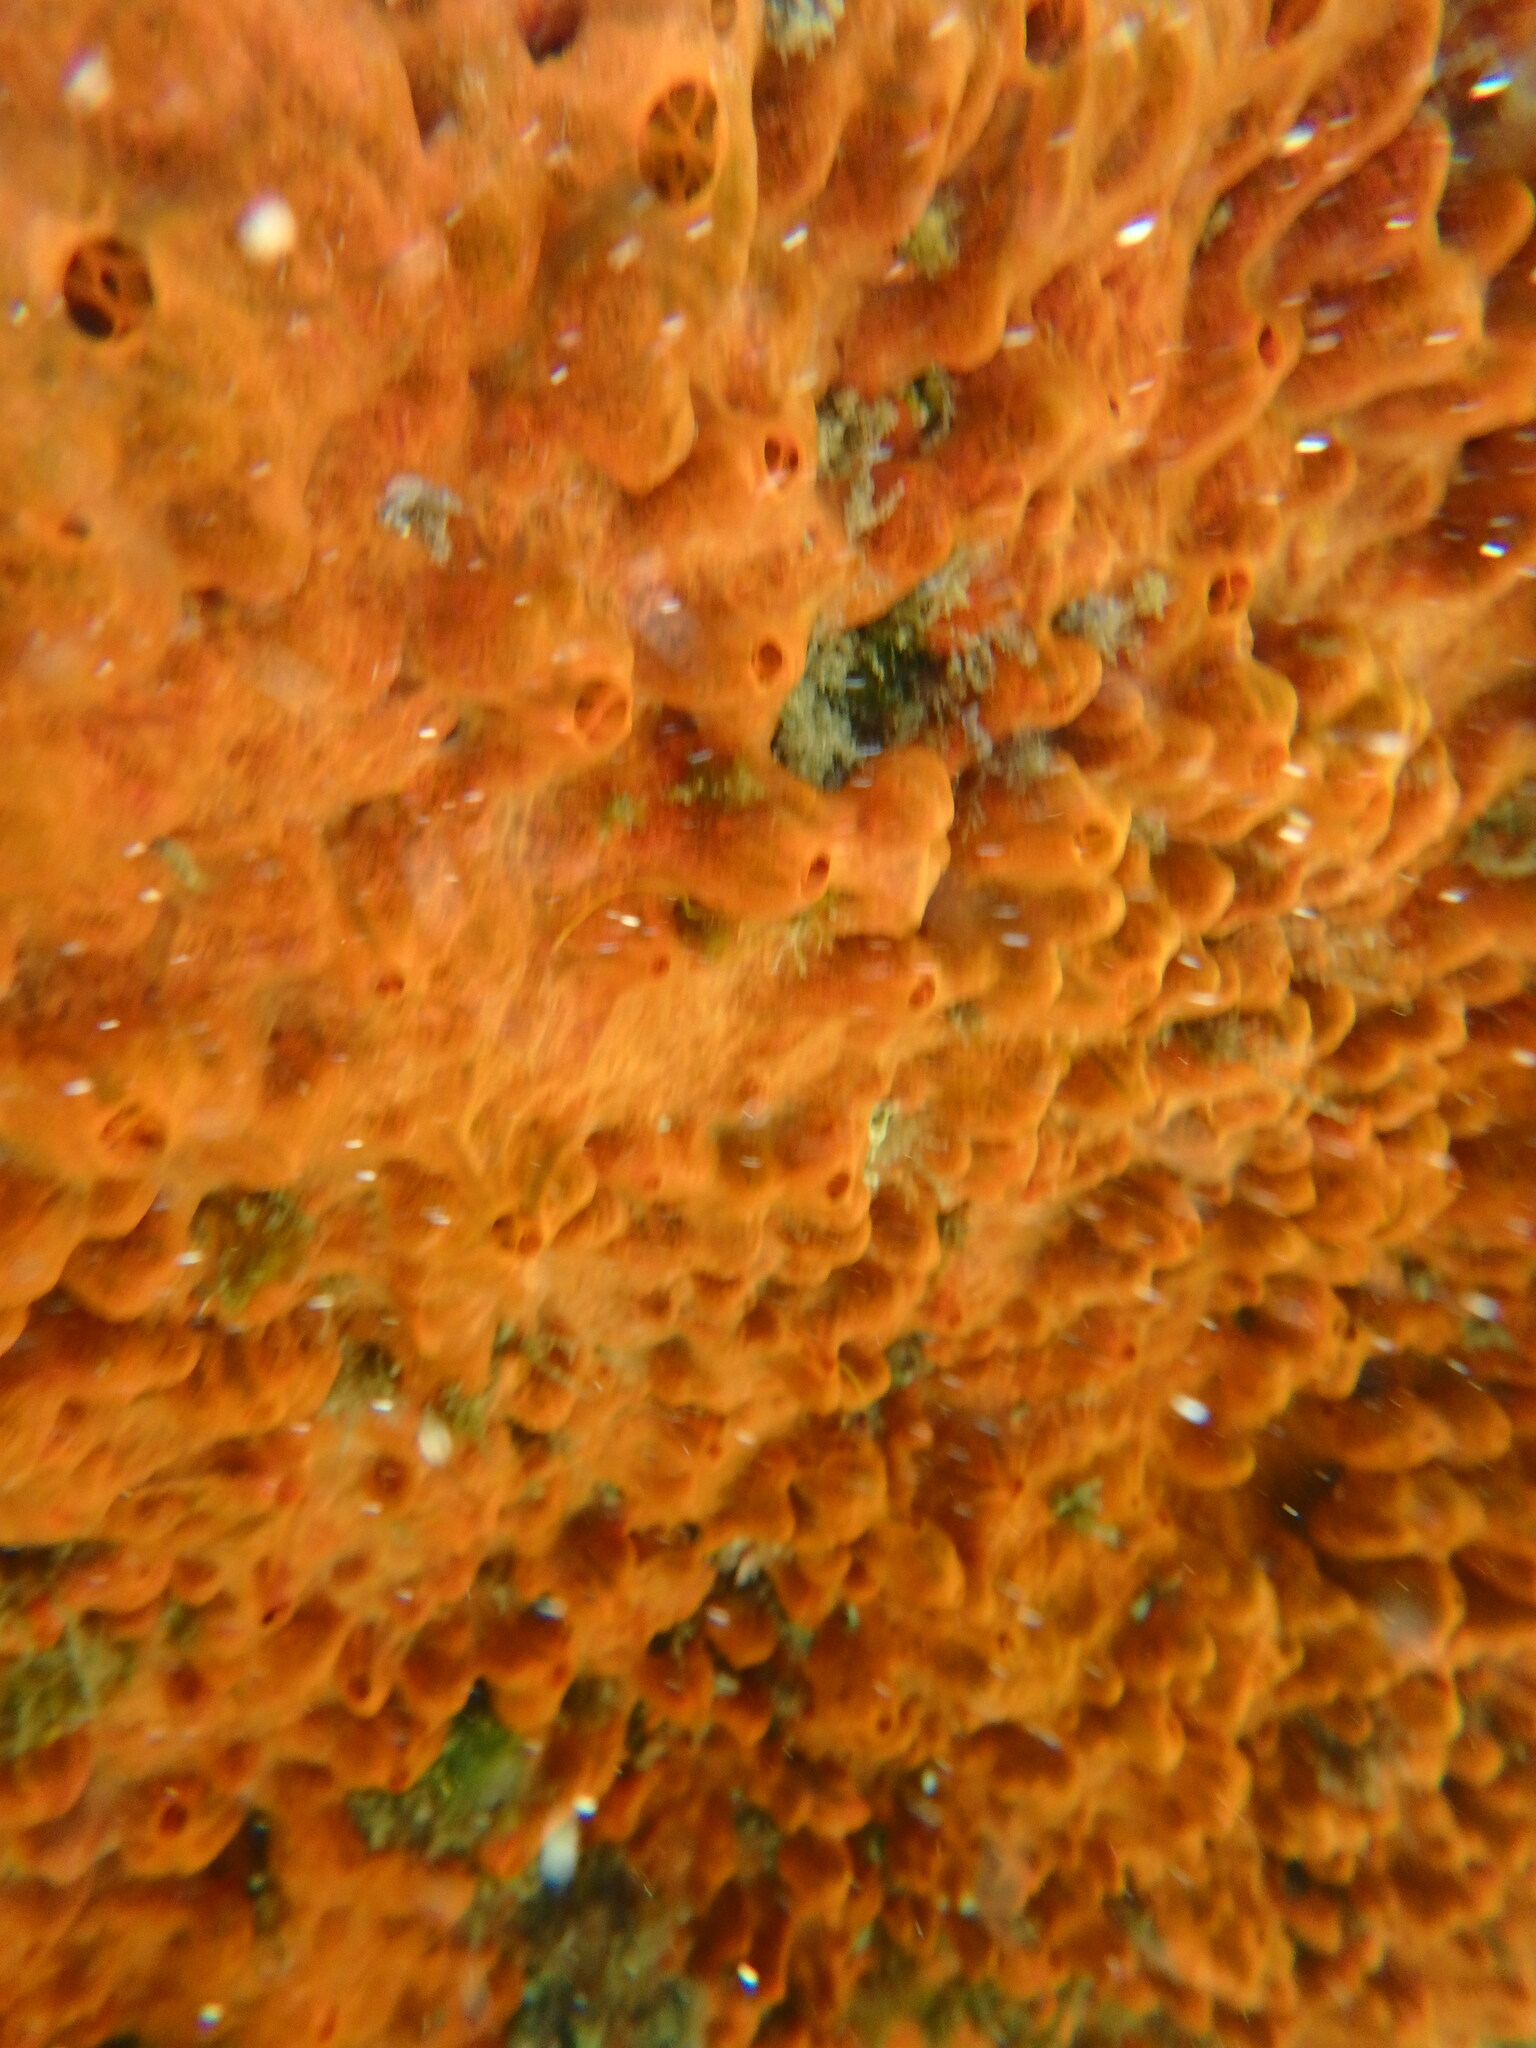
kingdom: Animalia
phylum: Porifera
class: Demospongiae
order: Poecilosclerida
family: Crambeidae
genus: Crambe
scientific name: Crambe crambe
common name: Orange-red encrusting sponge
